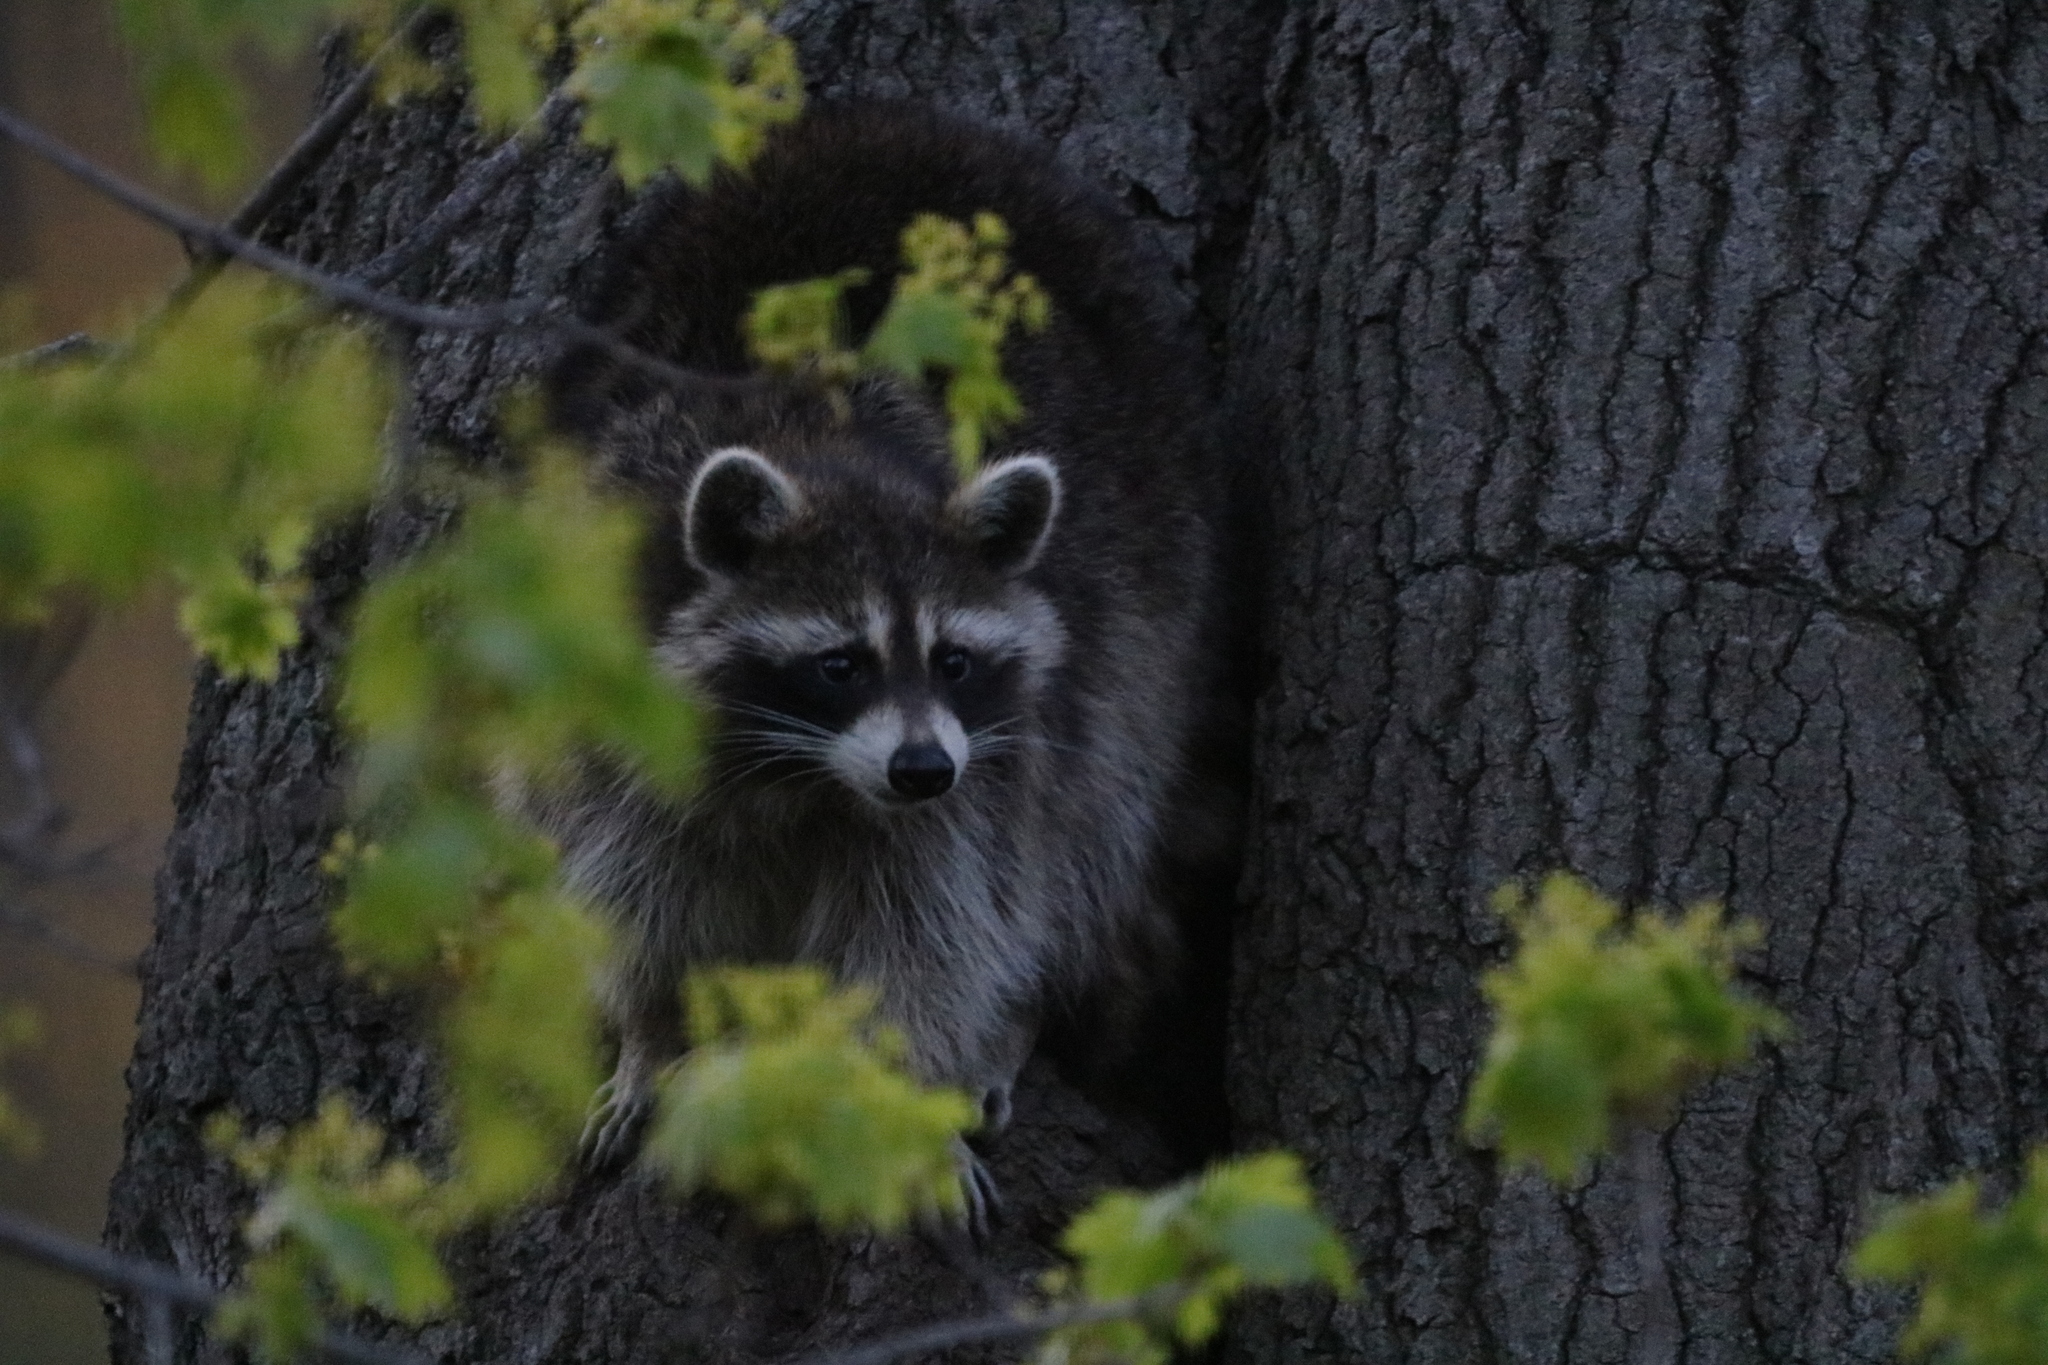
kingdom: Animalia
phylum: Chordata
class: Mammalia
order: Carnivora
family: Procyonidae
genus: Procyon
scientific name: Procyon lotor
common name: Raccoon
